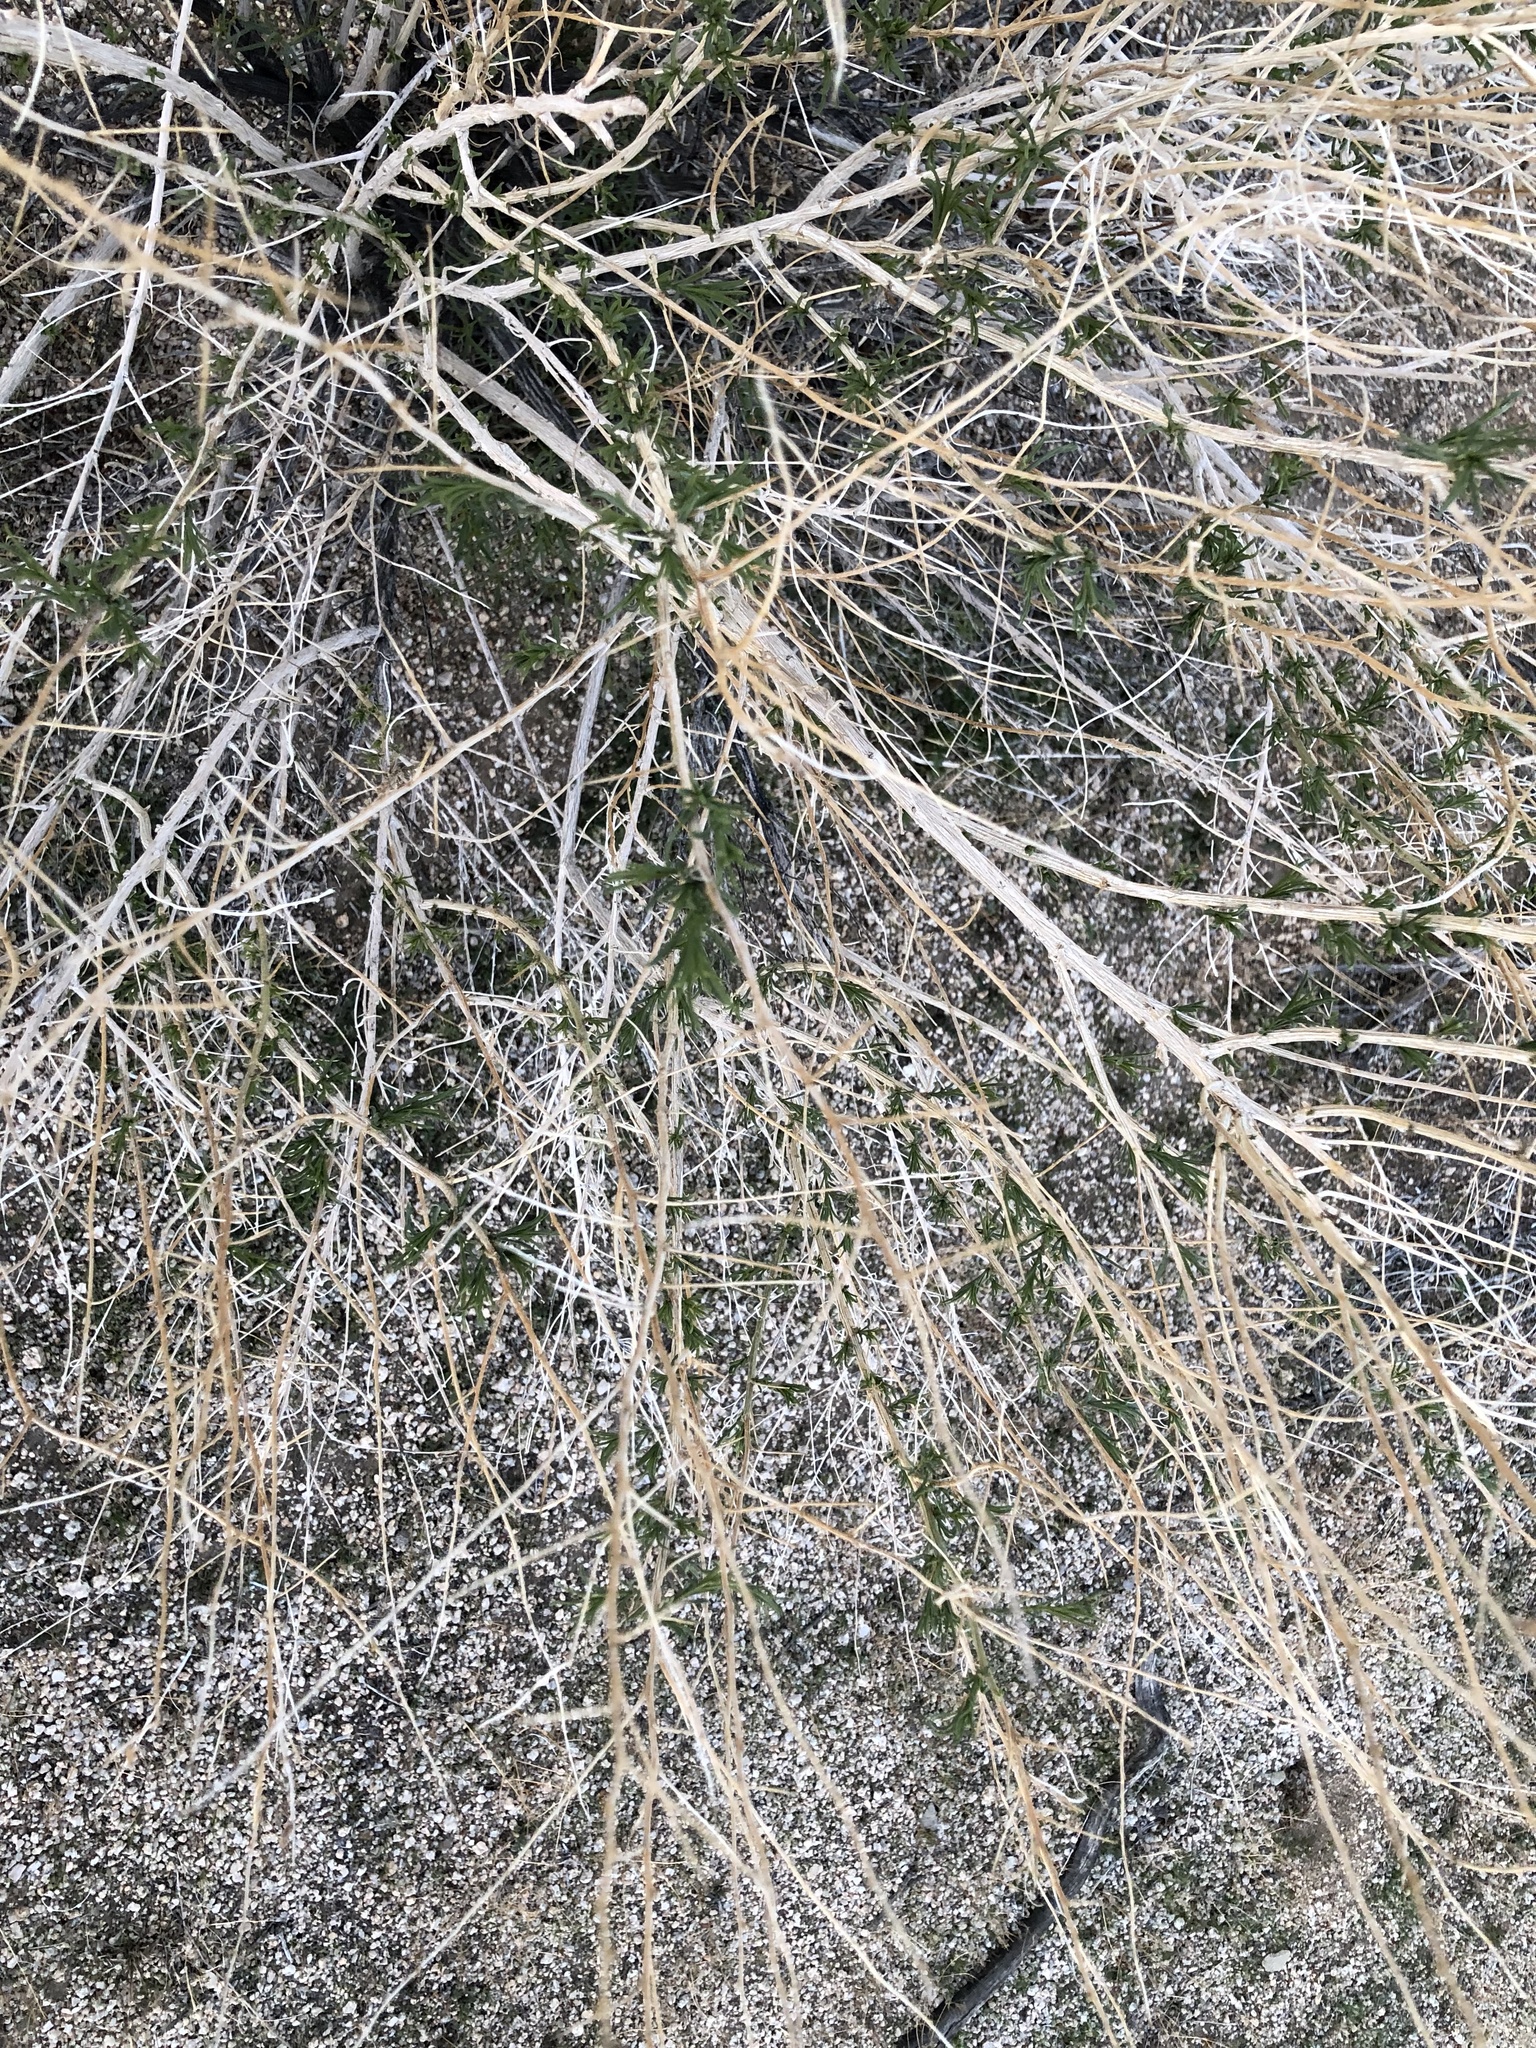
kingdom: Plantae
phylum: Tracheophyta
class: Magnoliopsida
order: Asterales
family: Asteraceae
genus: Ambrosia
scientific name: Ambrosia salsola
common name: Burrobrush
